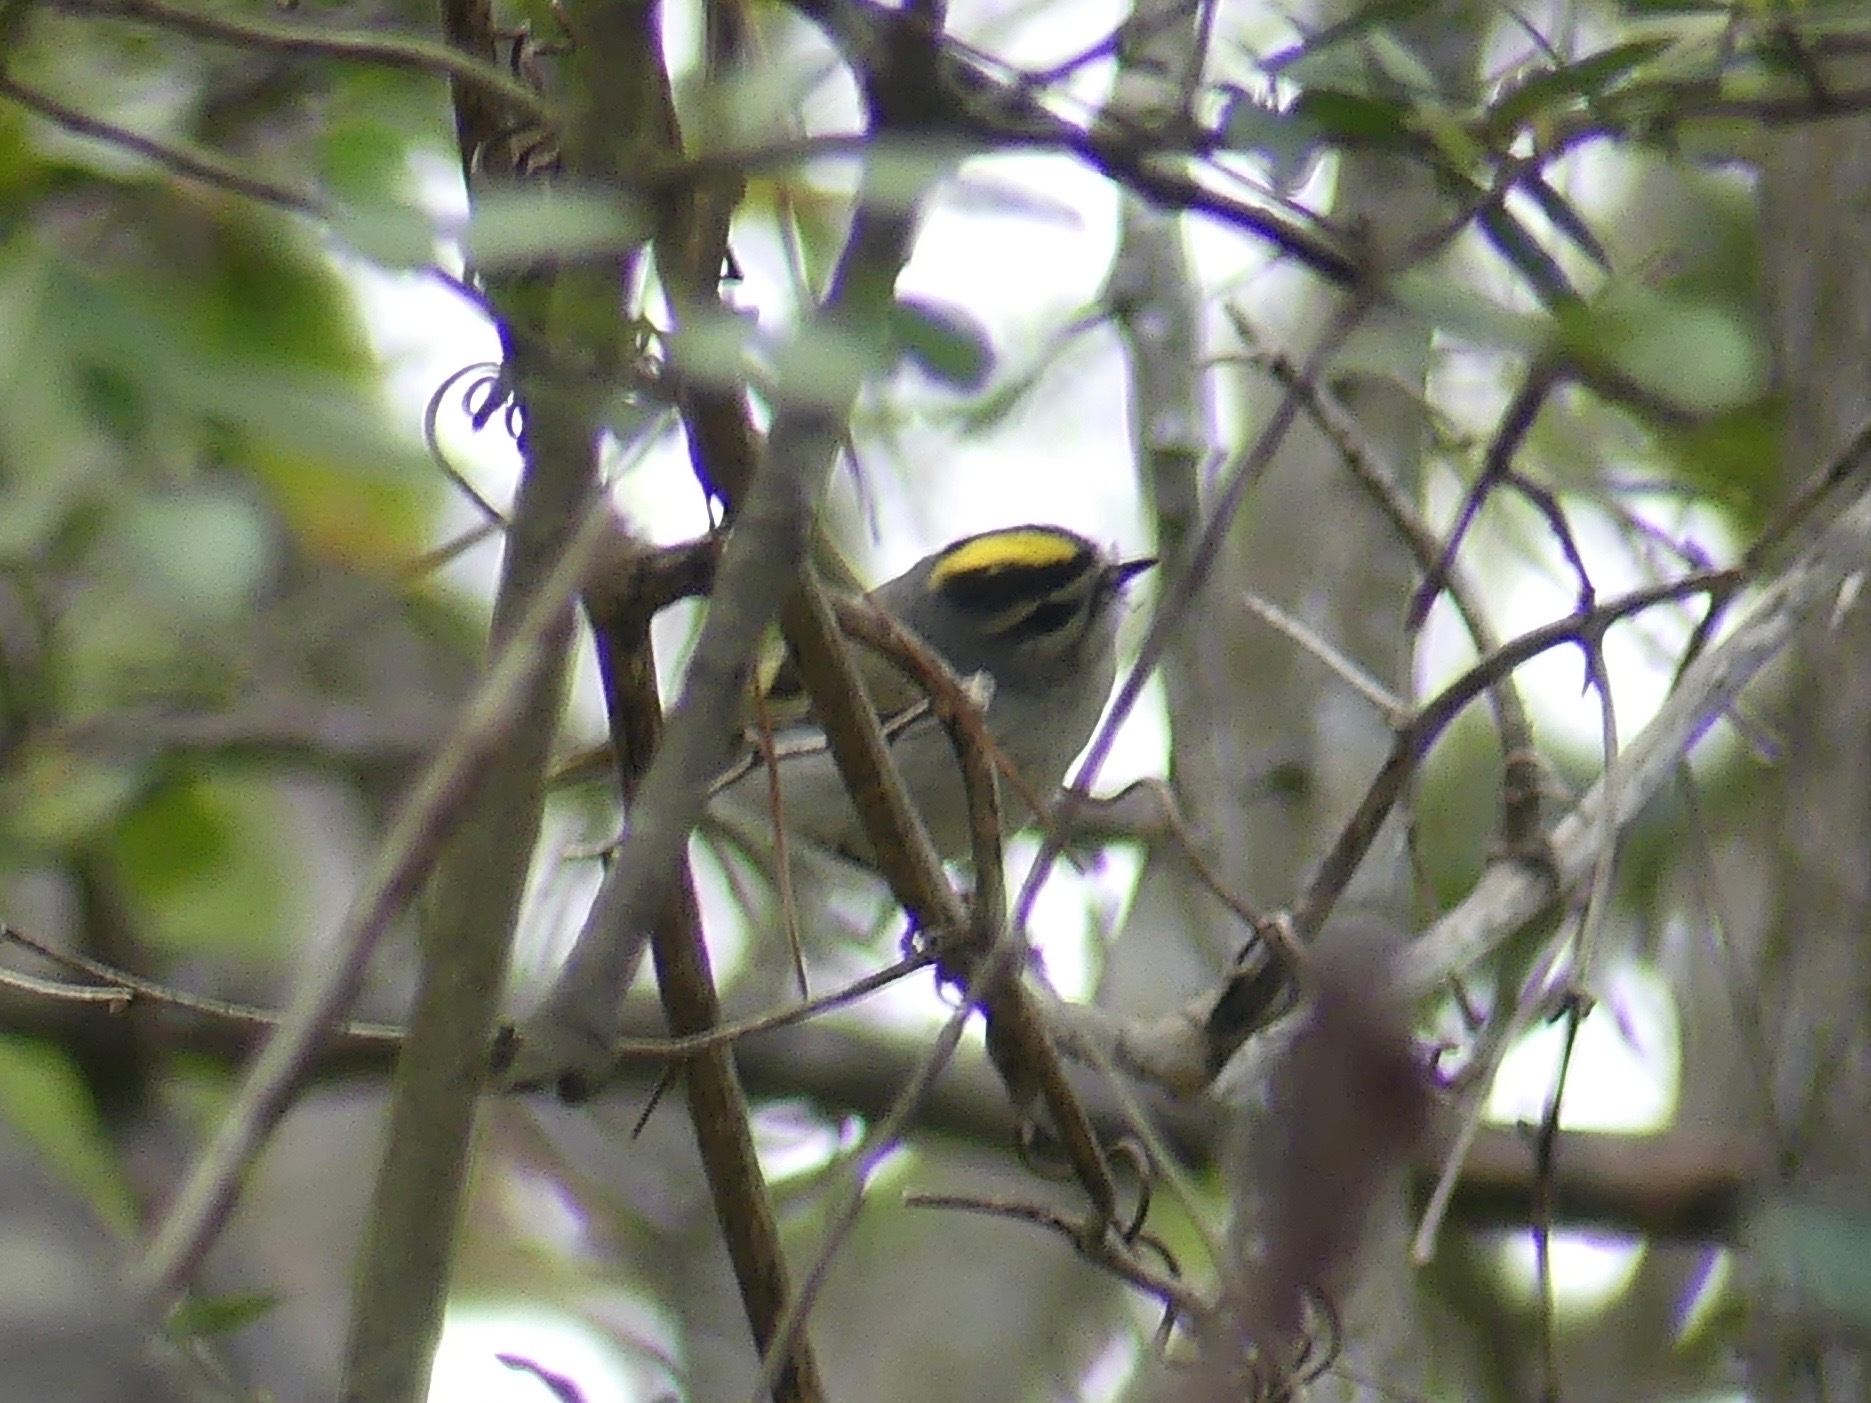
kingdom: Animalia
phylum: Chordata
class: Aves
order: Passeriformes
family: Regulidae
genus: Regulus
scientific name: Regulus satrapa
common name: Golden-crowned kinglet
